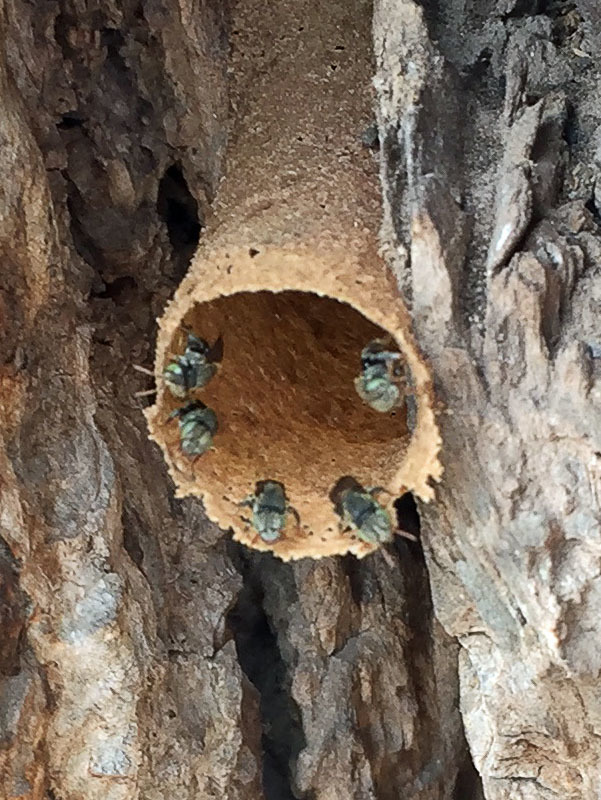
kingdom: Animalia
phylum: Arthropoda
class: Insecta
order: Hymenoptera
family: Apidae
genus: Nannotrigona
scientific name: Nannotrigona perilampoides
